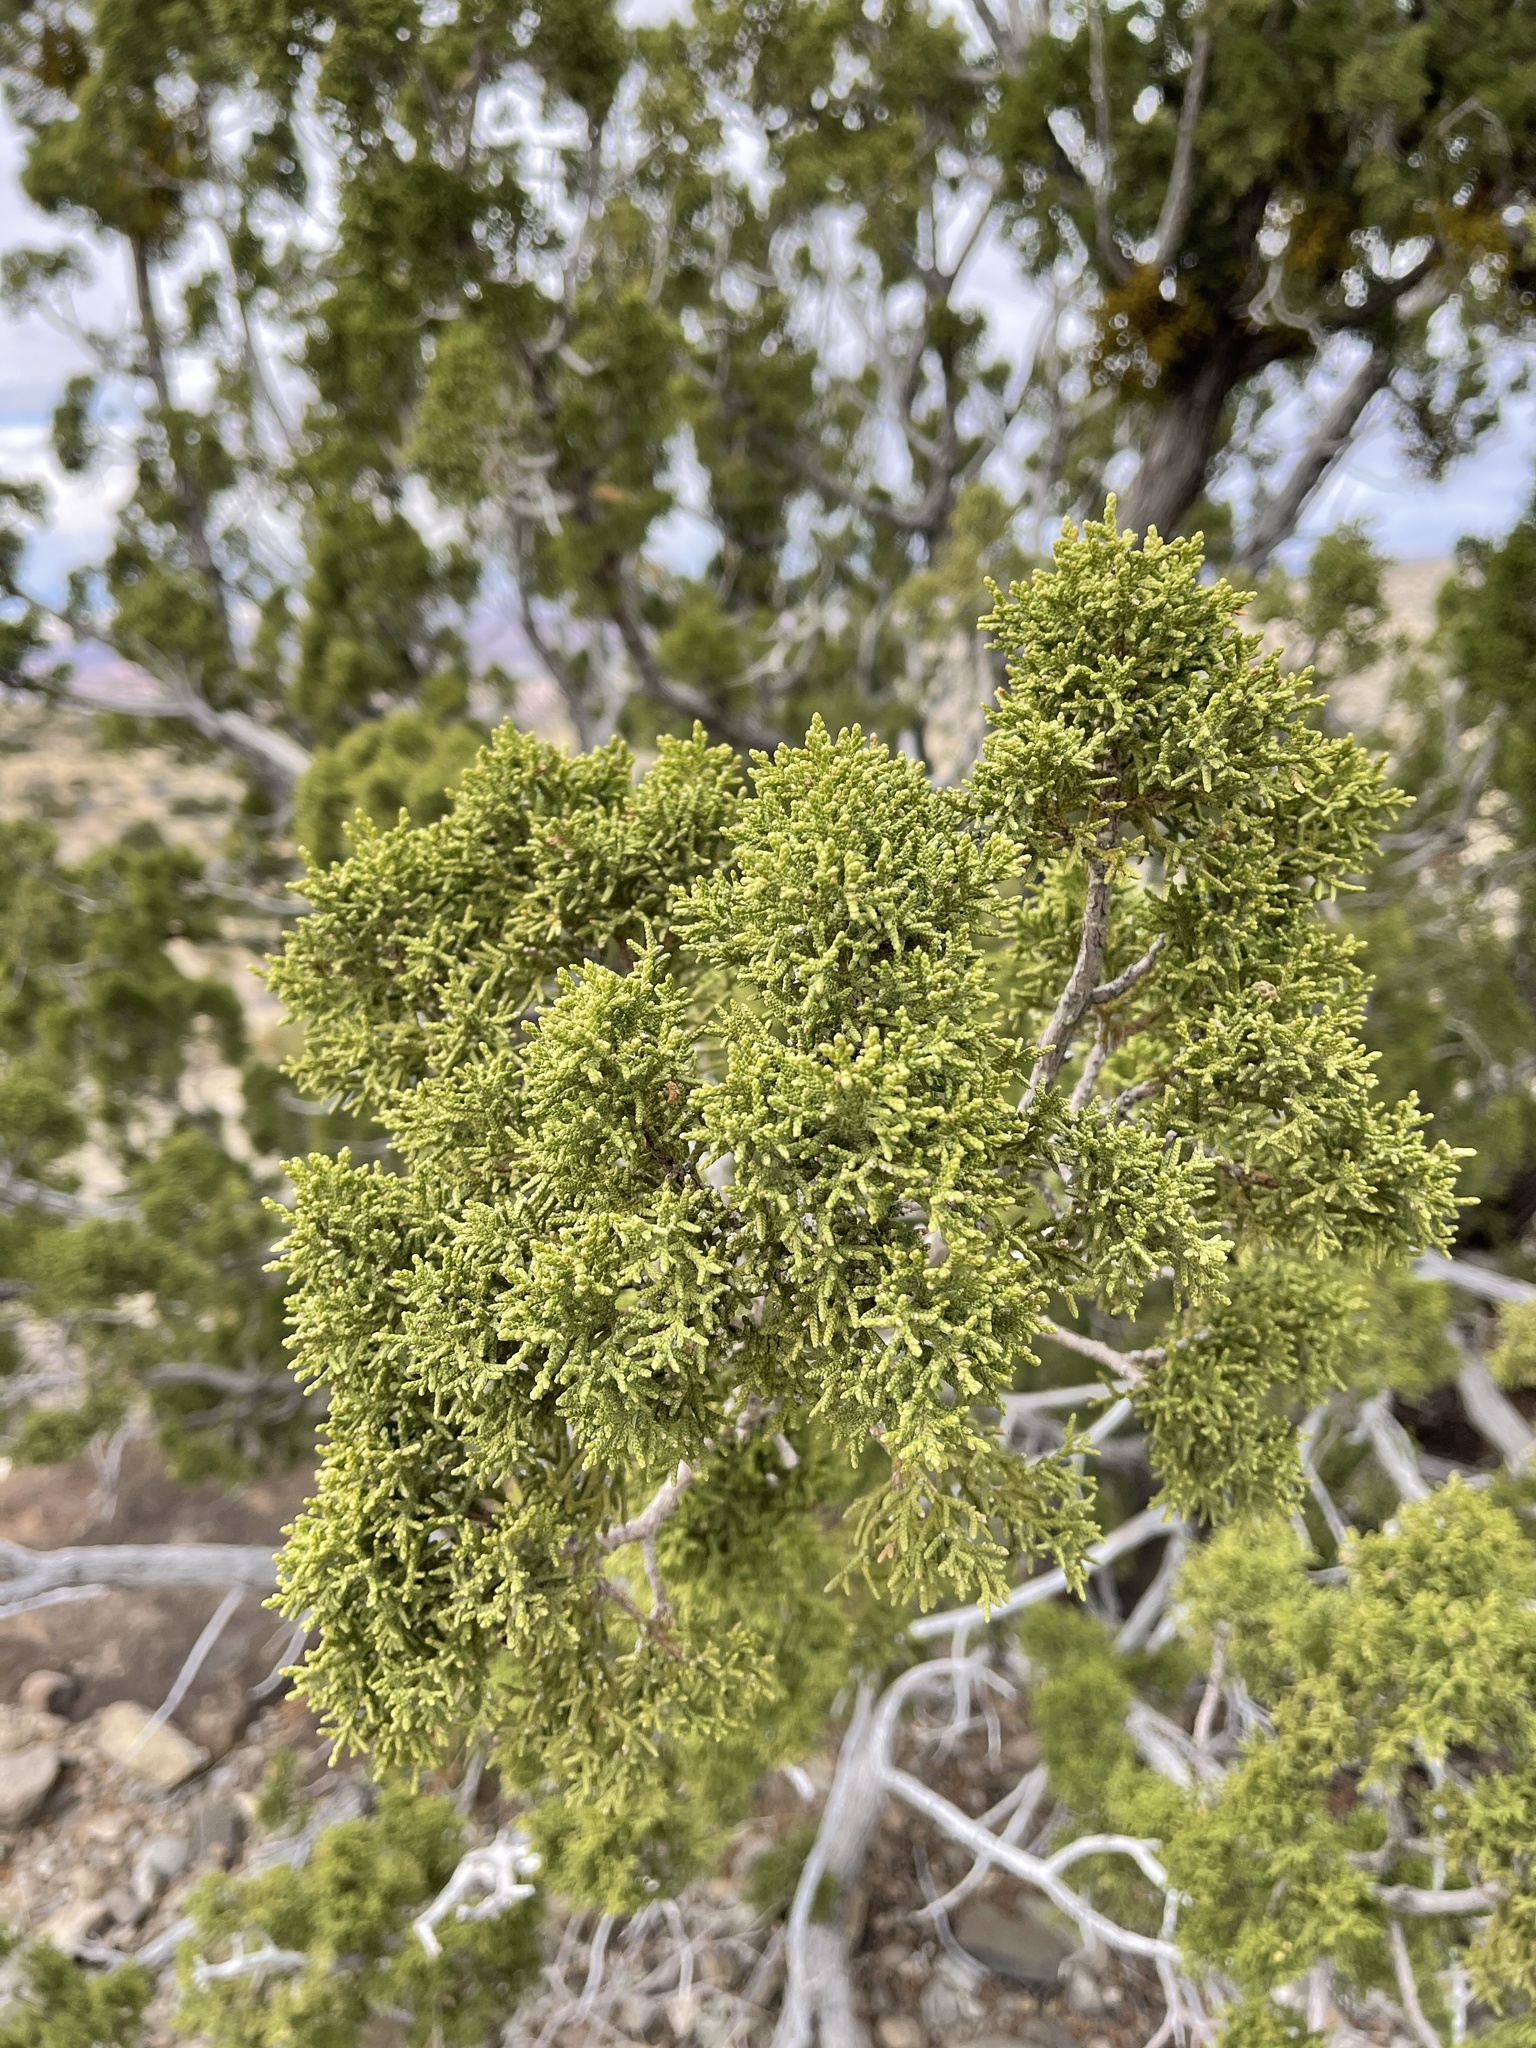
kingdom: Plantae
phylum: Tracheophyta
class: Pinopsida
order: Pinales
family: Cupressaceae
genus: Juniperus
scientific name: Juniperus monosperma
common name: One-seed juniper
